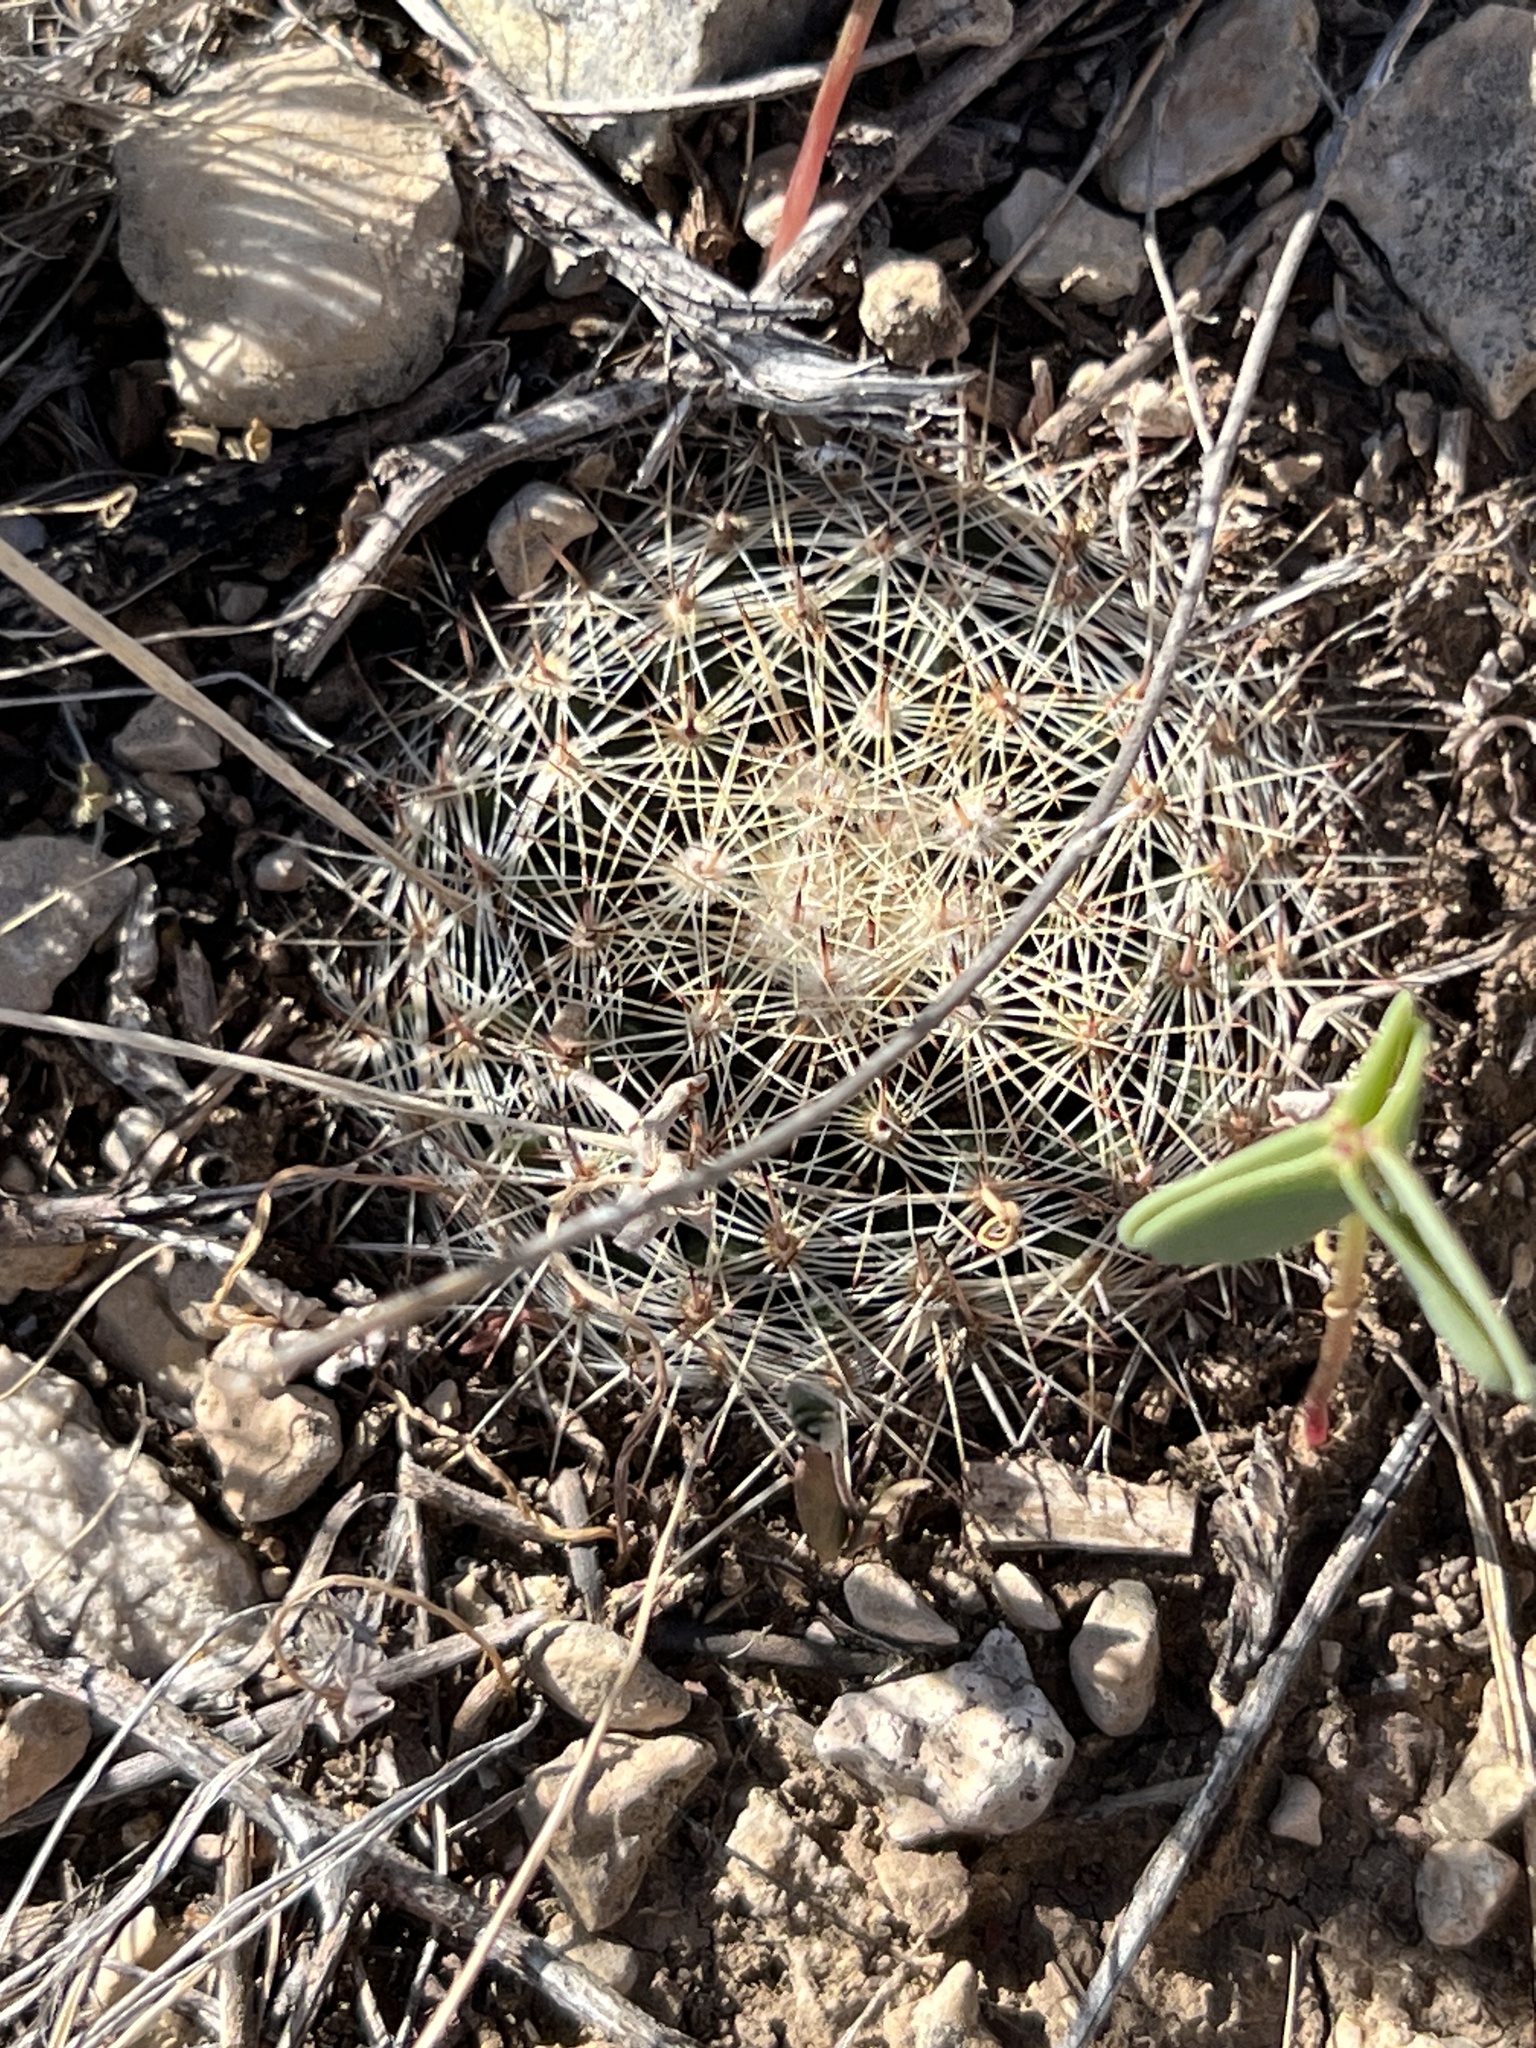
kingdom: Plantae
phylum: Tracheophyta
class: Magnoliopsida
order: Caryophyllales
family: Cactaceae
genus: Mammillaria
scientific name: Mammillaria heyderi
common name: Little nipple cactus
